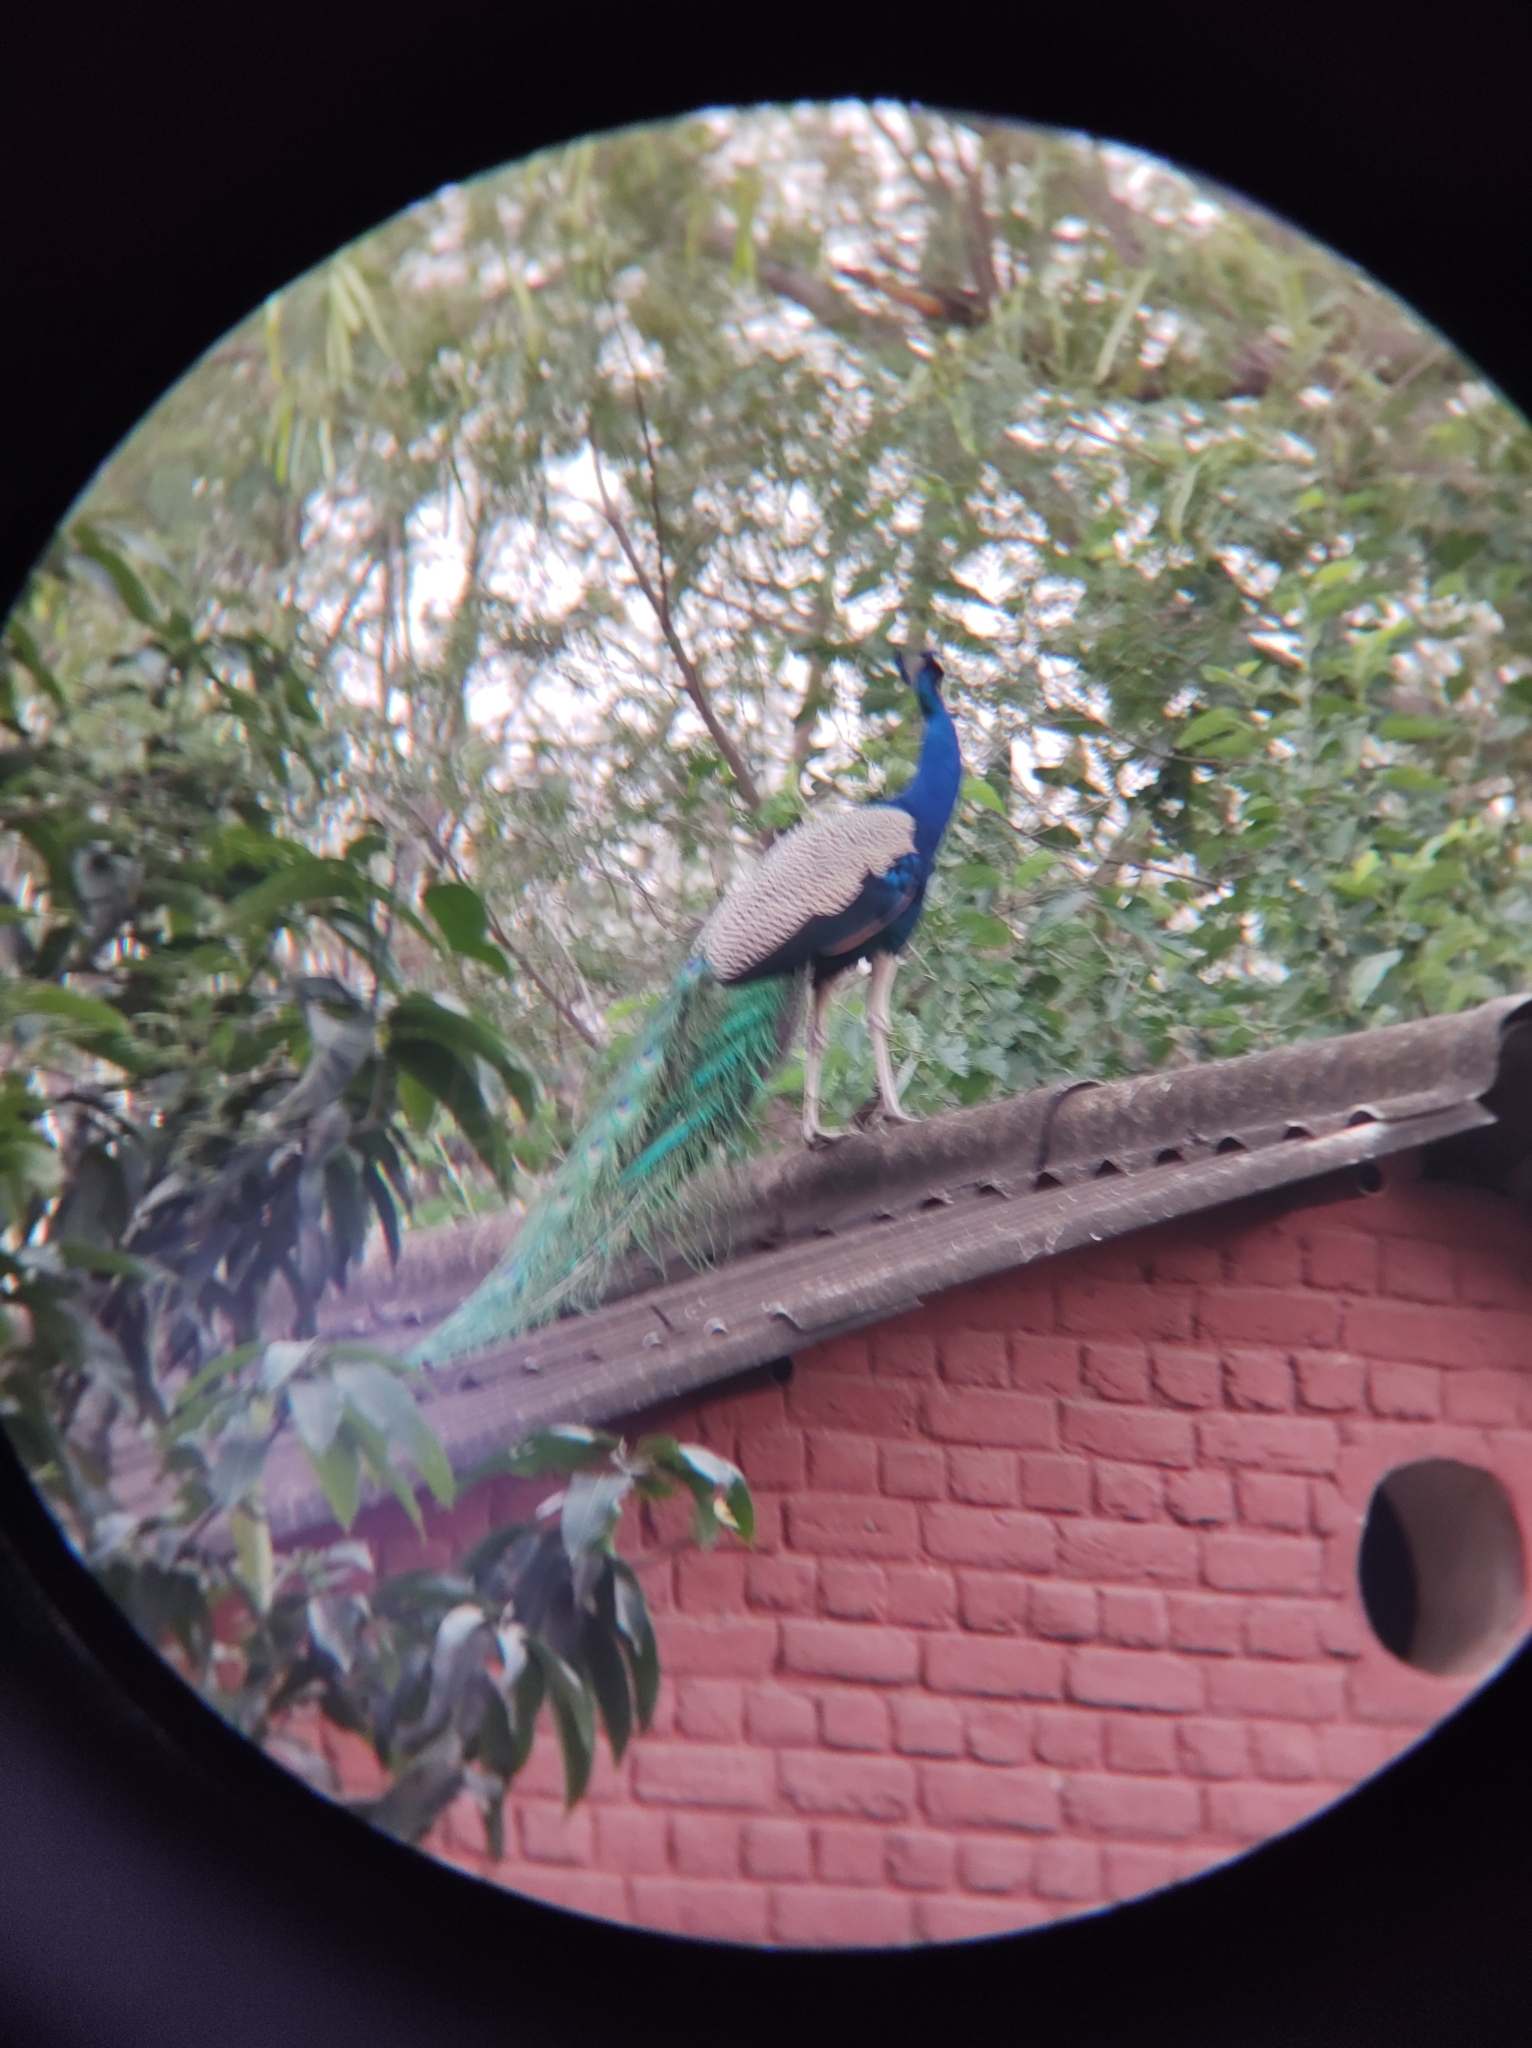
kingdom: Animalia
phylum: Chordata
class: Aves
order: Galliformes
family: Phasianidae
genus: Pavo
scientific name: Pavo cristatus
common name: Indian peafowl
